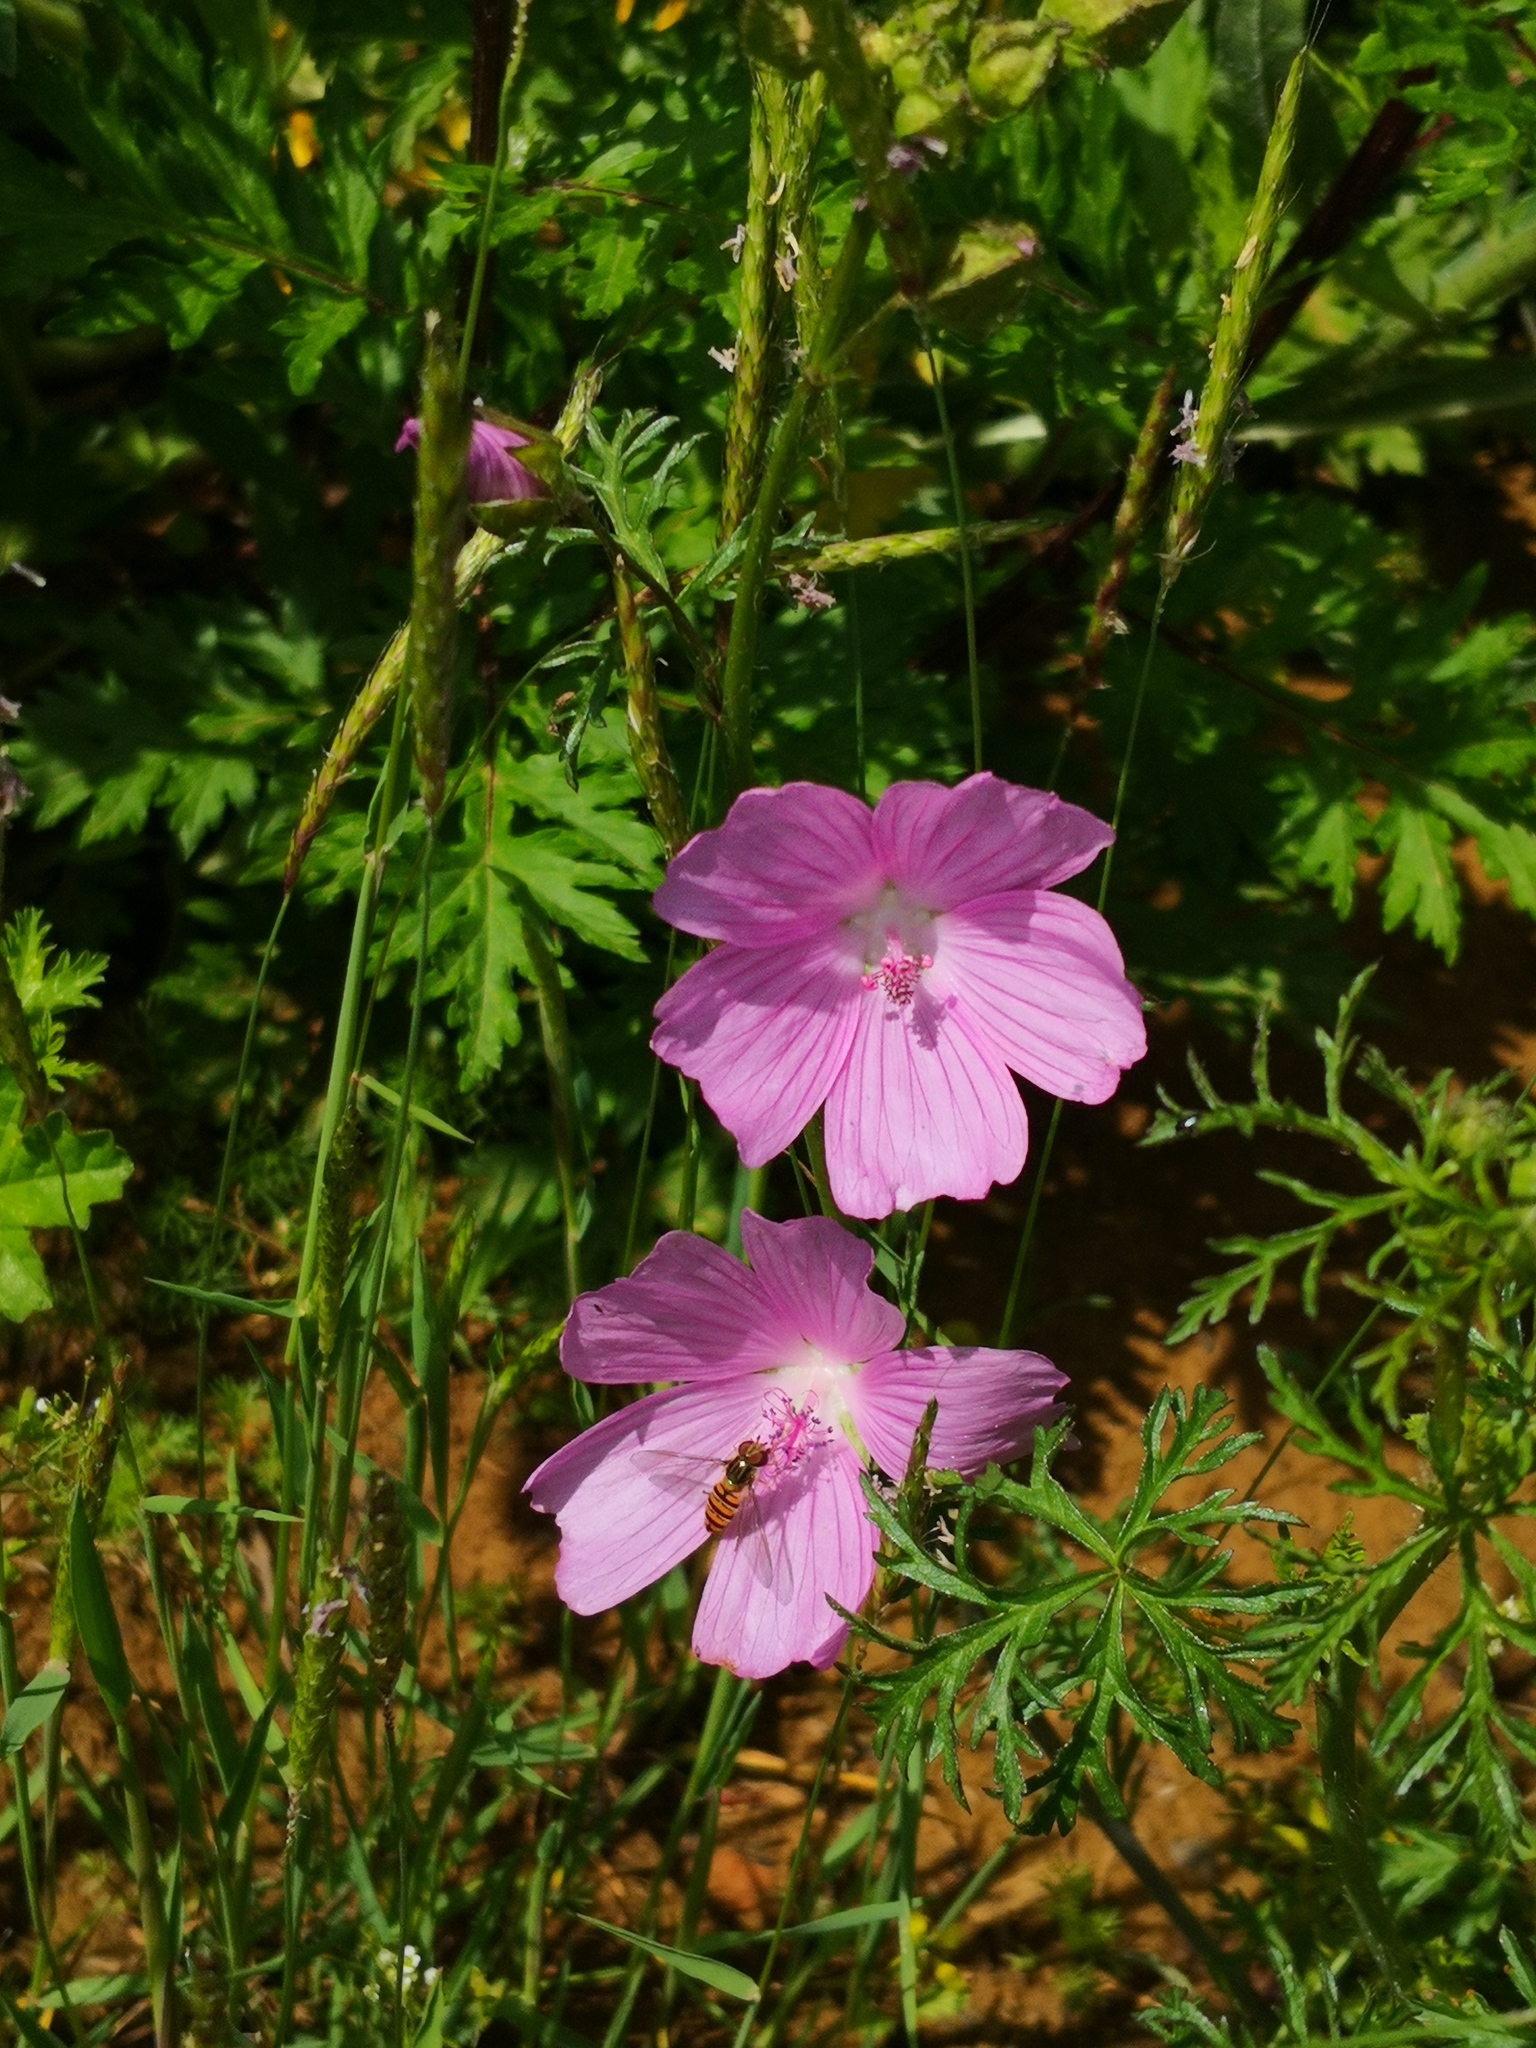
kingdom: Plantae
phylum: Tracheophyta
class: Magnoliopsida
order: Malvales
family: Malvaceae
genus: Malva
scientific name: Malva moschata
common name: Musk mallow
